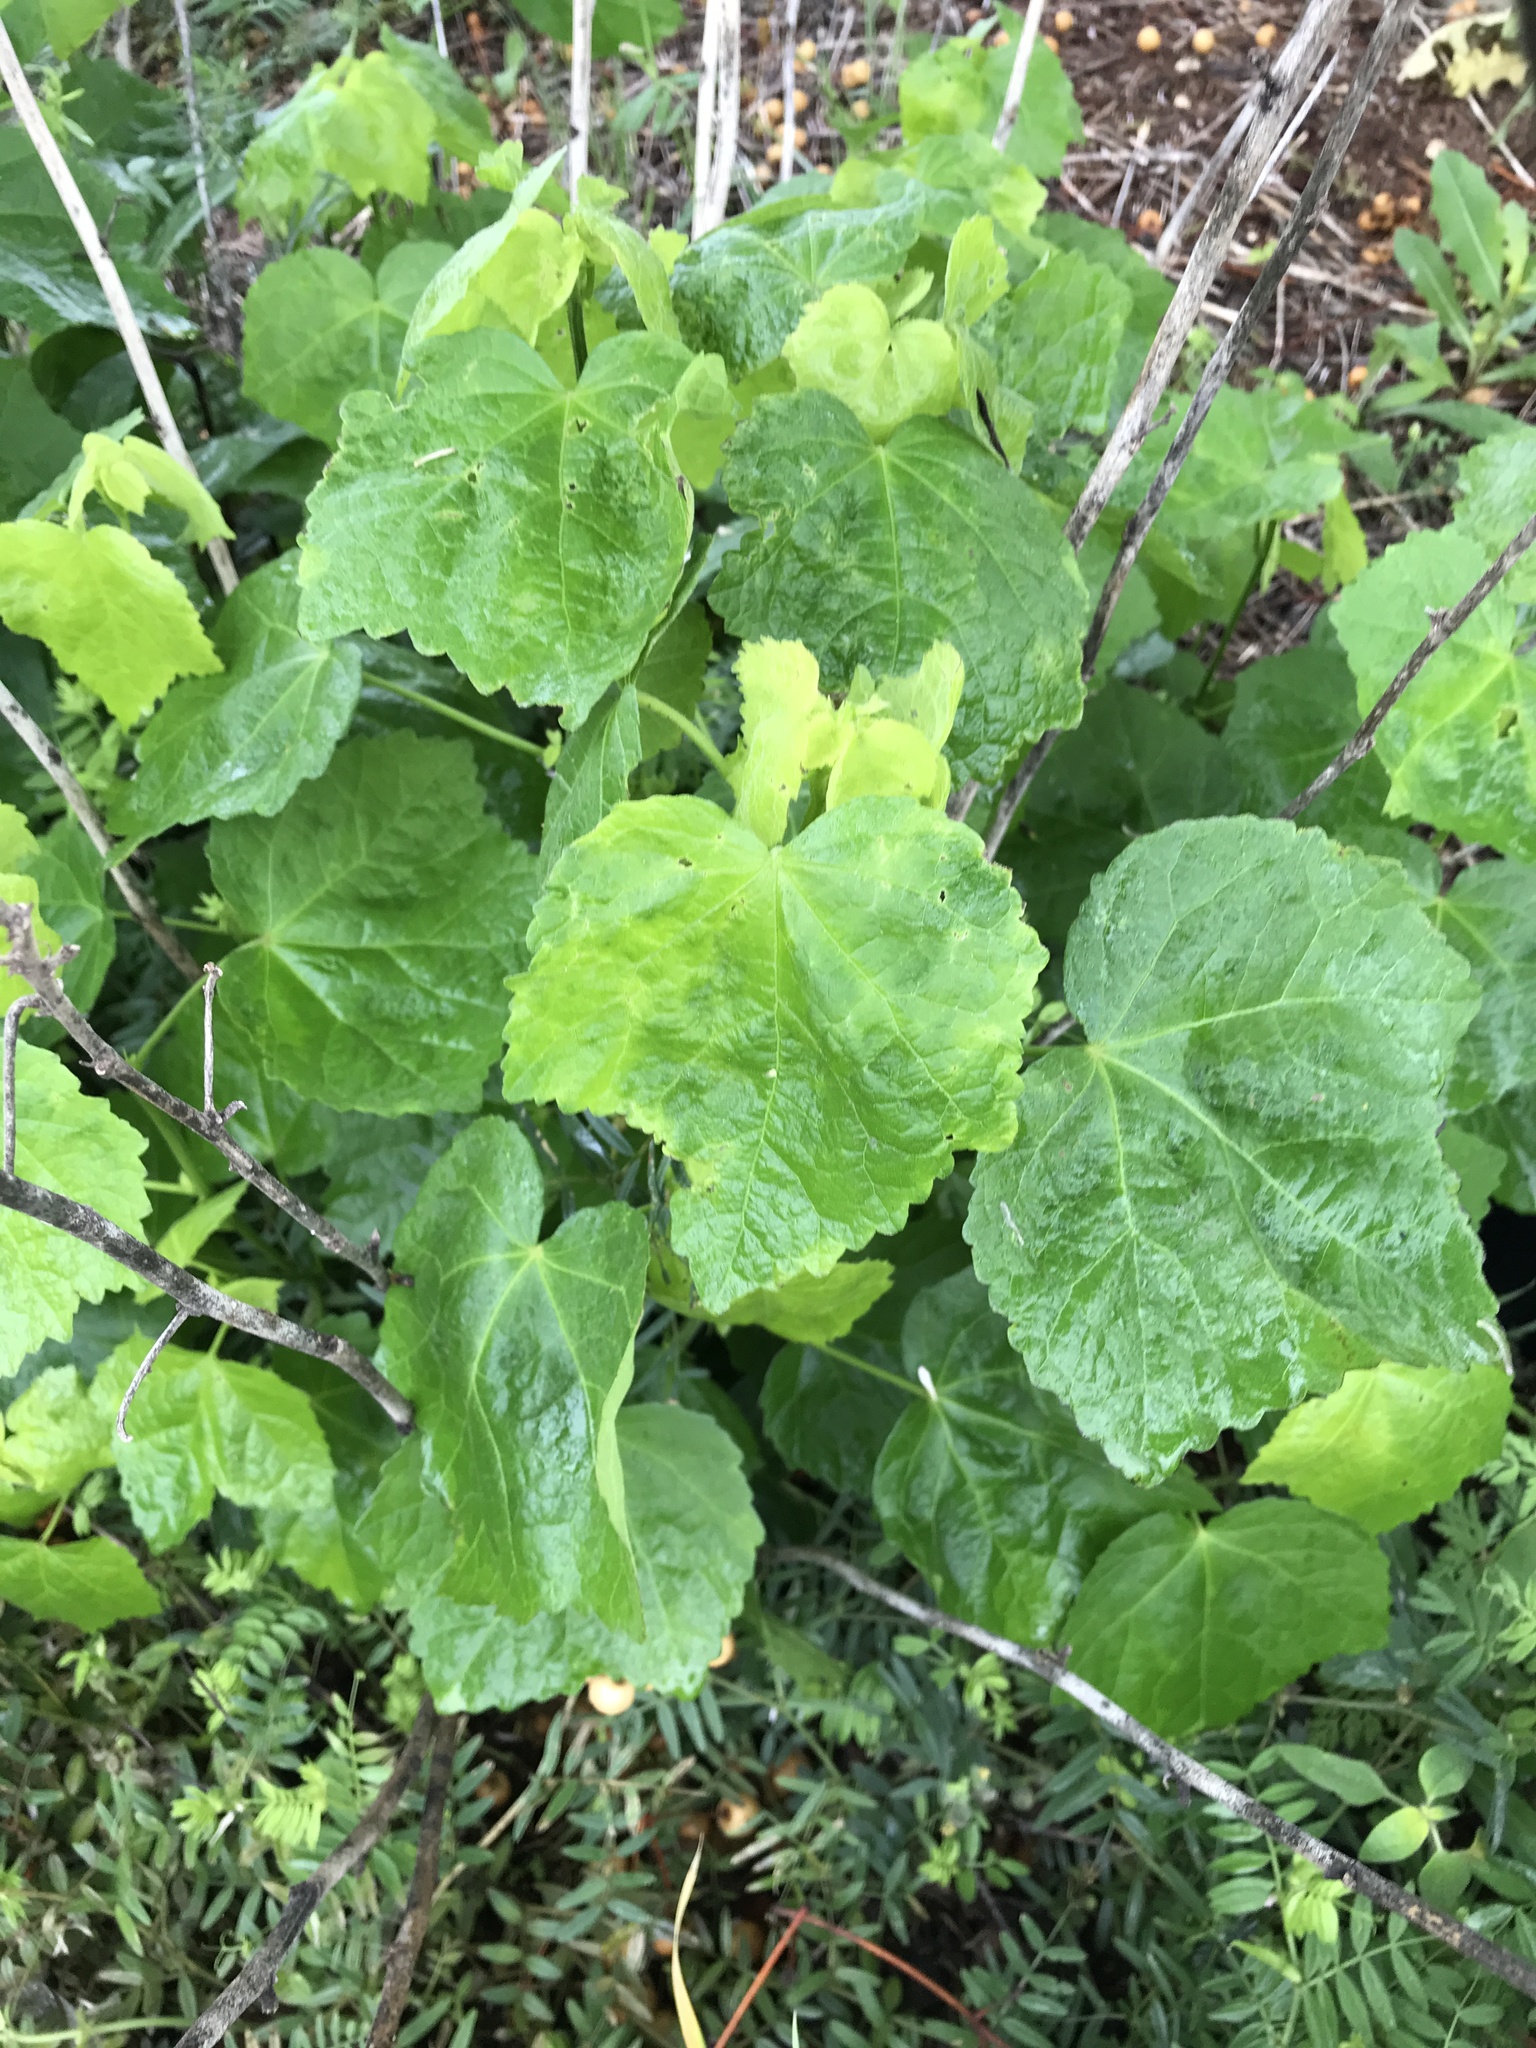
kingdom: Plantae
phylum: Tracheophyta
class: Magnoliopsida
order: Malvales
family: Malvaceae
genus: Malvaviscus
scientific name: Malvaviscus arboreus
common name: Wax mallow
